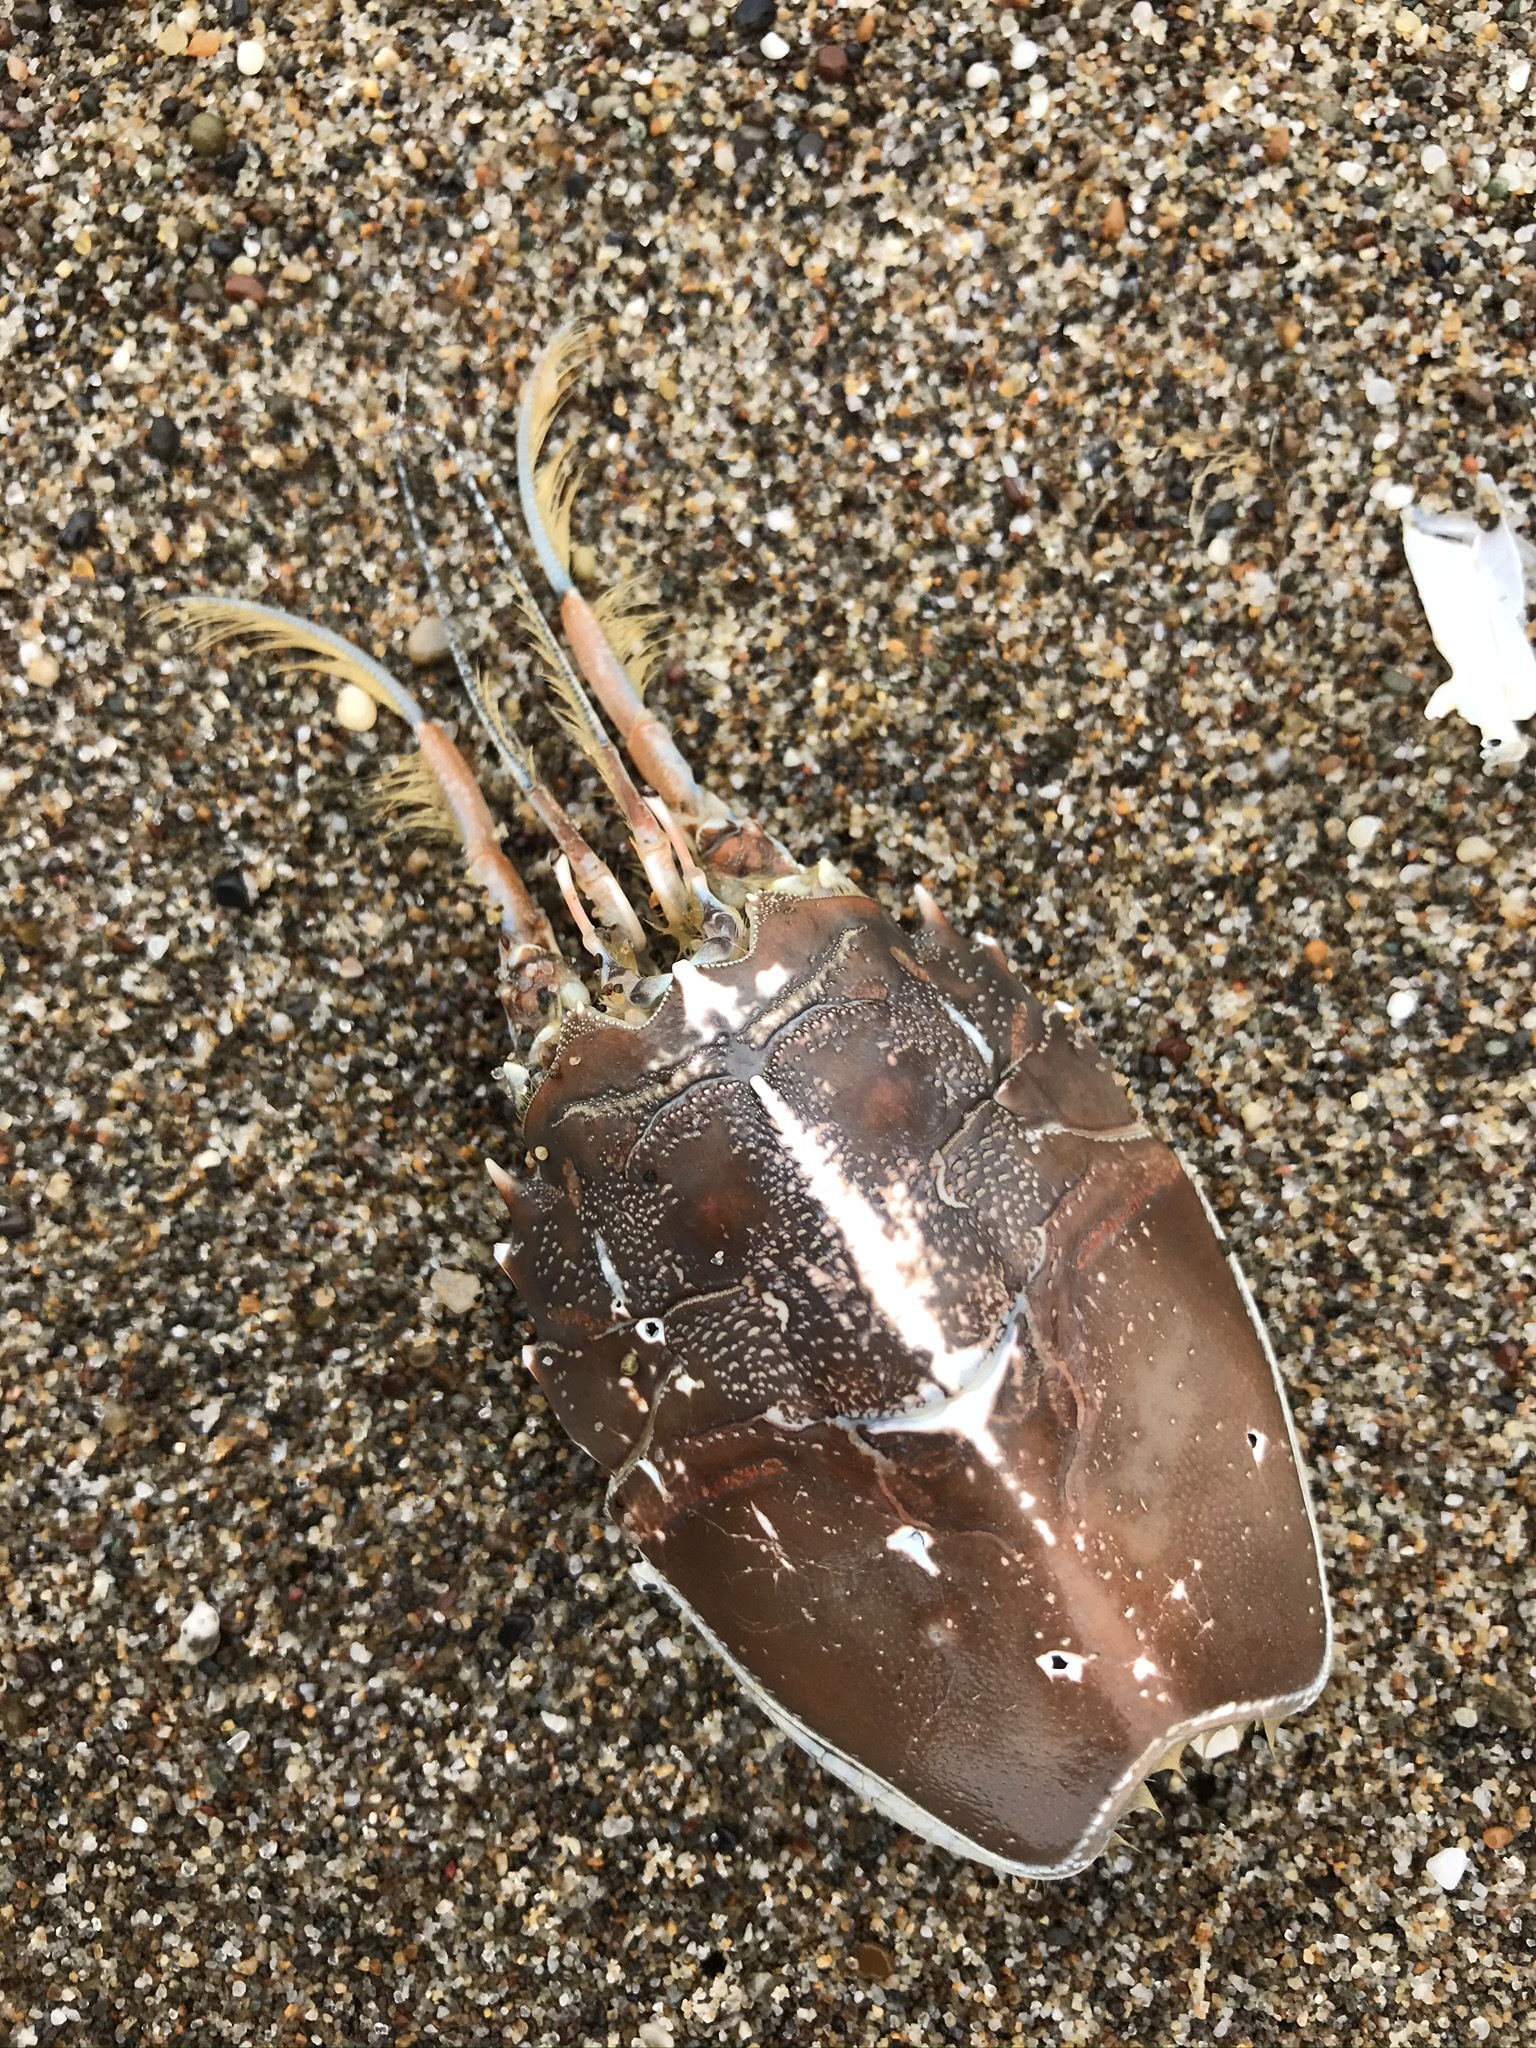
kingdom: Animalia
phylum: Arthropoda
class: Malacostraca
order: Decapoda
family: Blepharipodidae
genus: Blepharipoda
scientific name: Blepharipoda occidentalis
